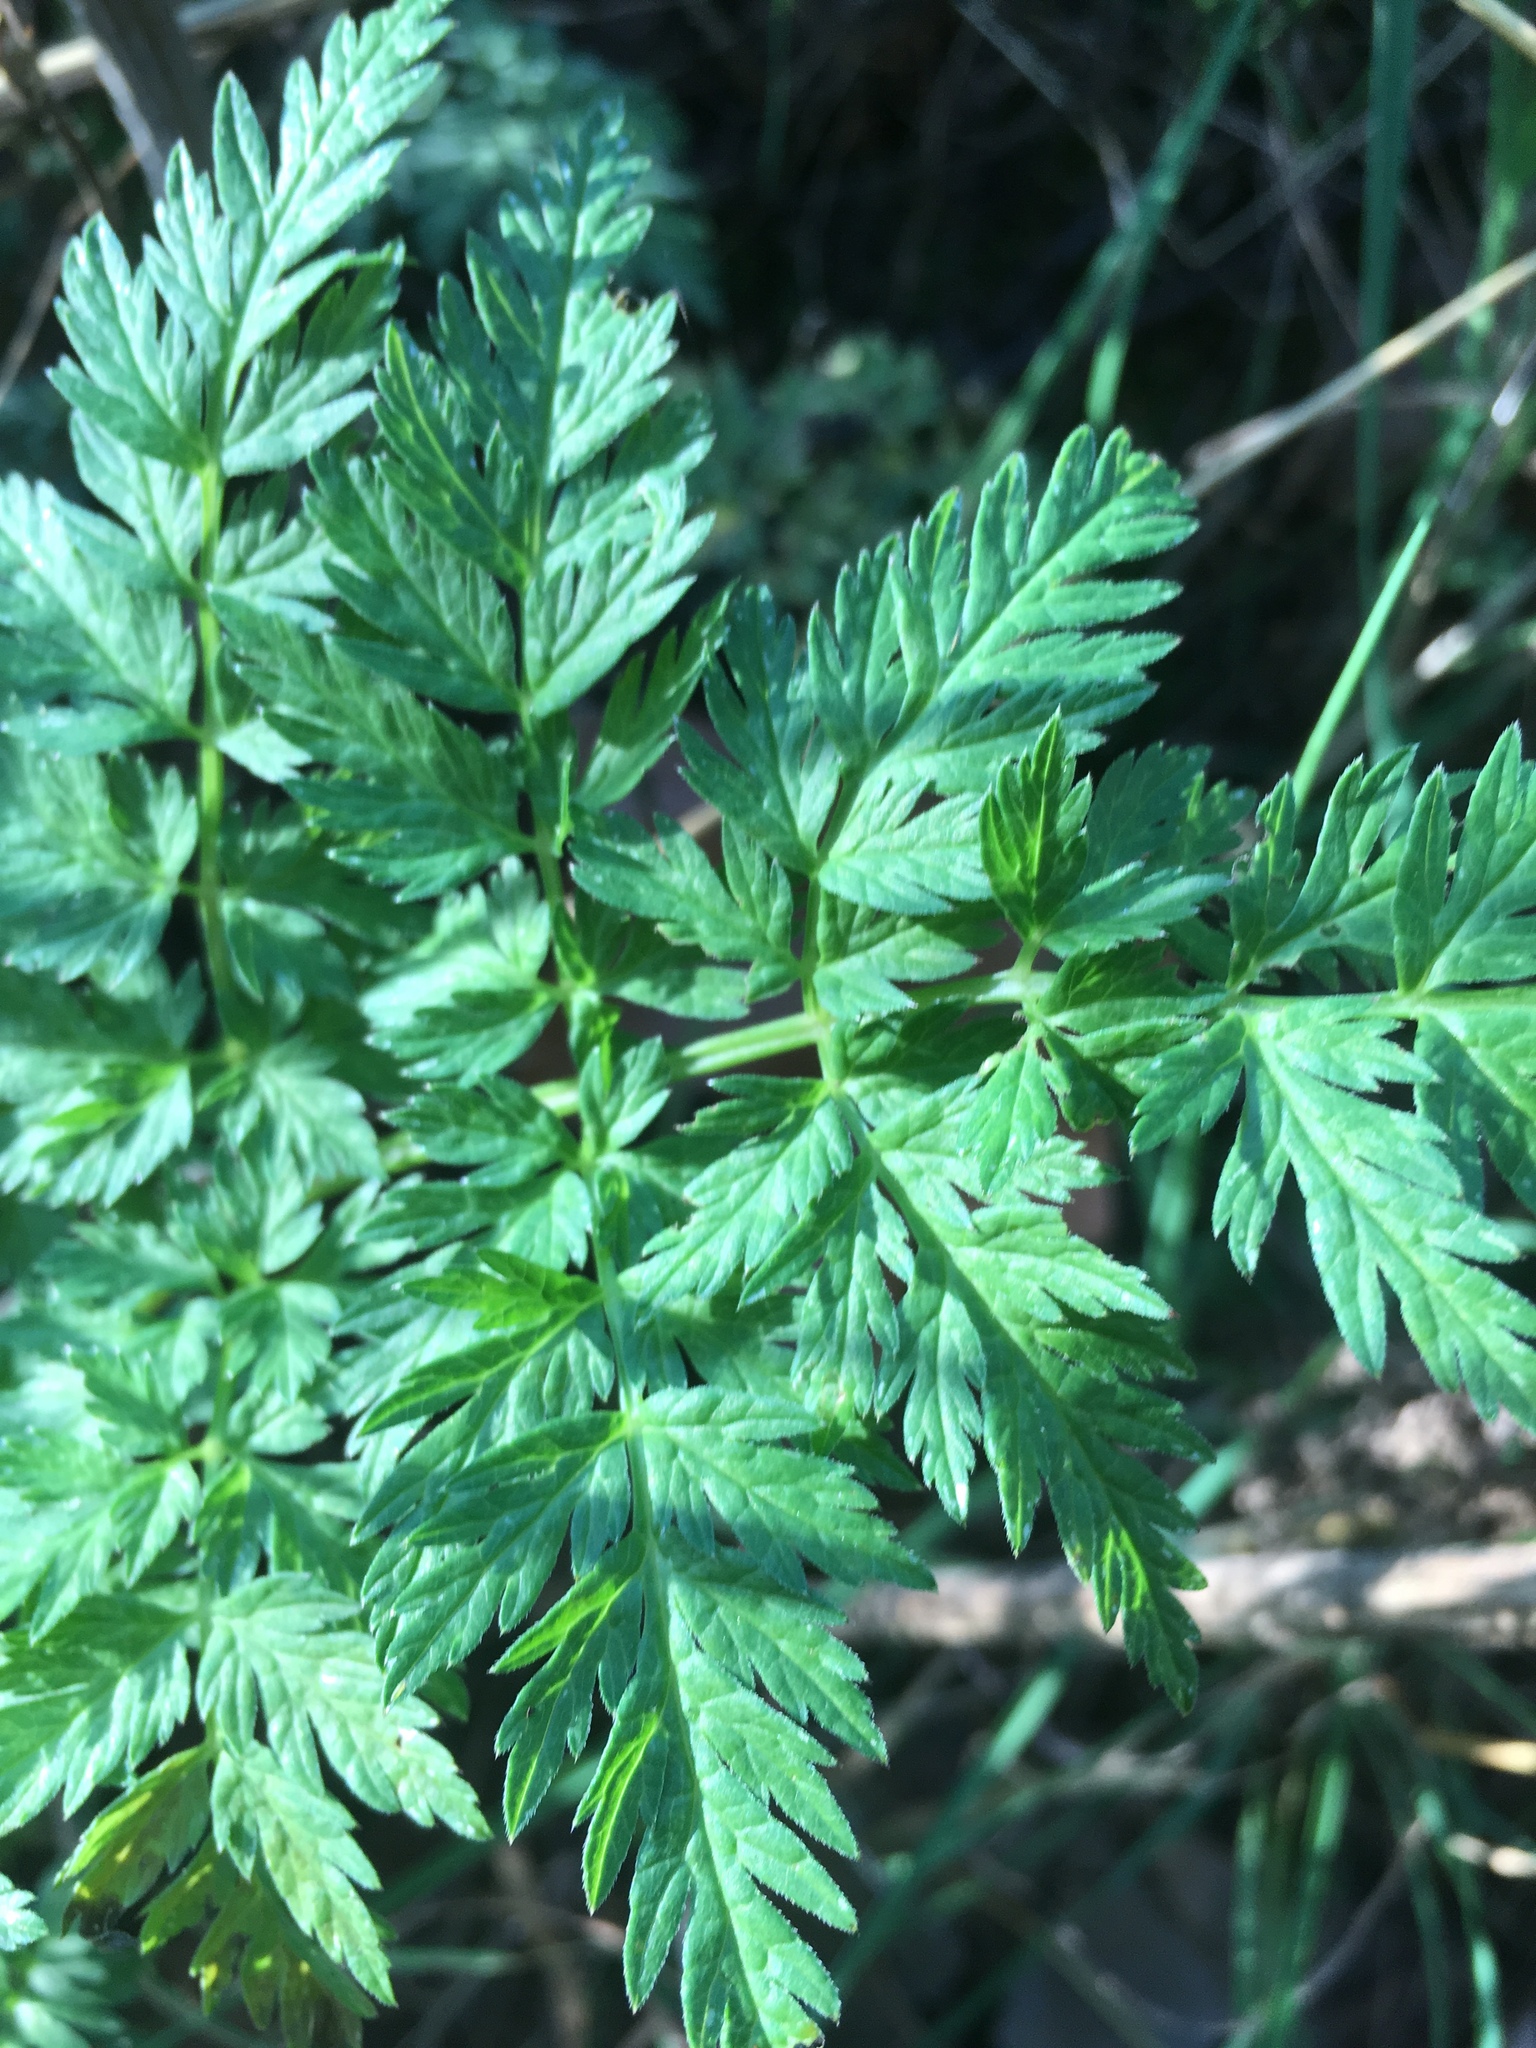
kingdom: Plantae
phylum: Tracheophyta
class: Magnoliopsida
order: Apiales
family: Apiaceae
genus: Anthriscus
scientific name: Anthriscus sylvestris
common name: Cow parsley
